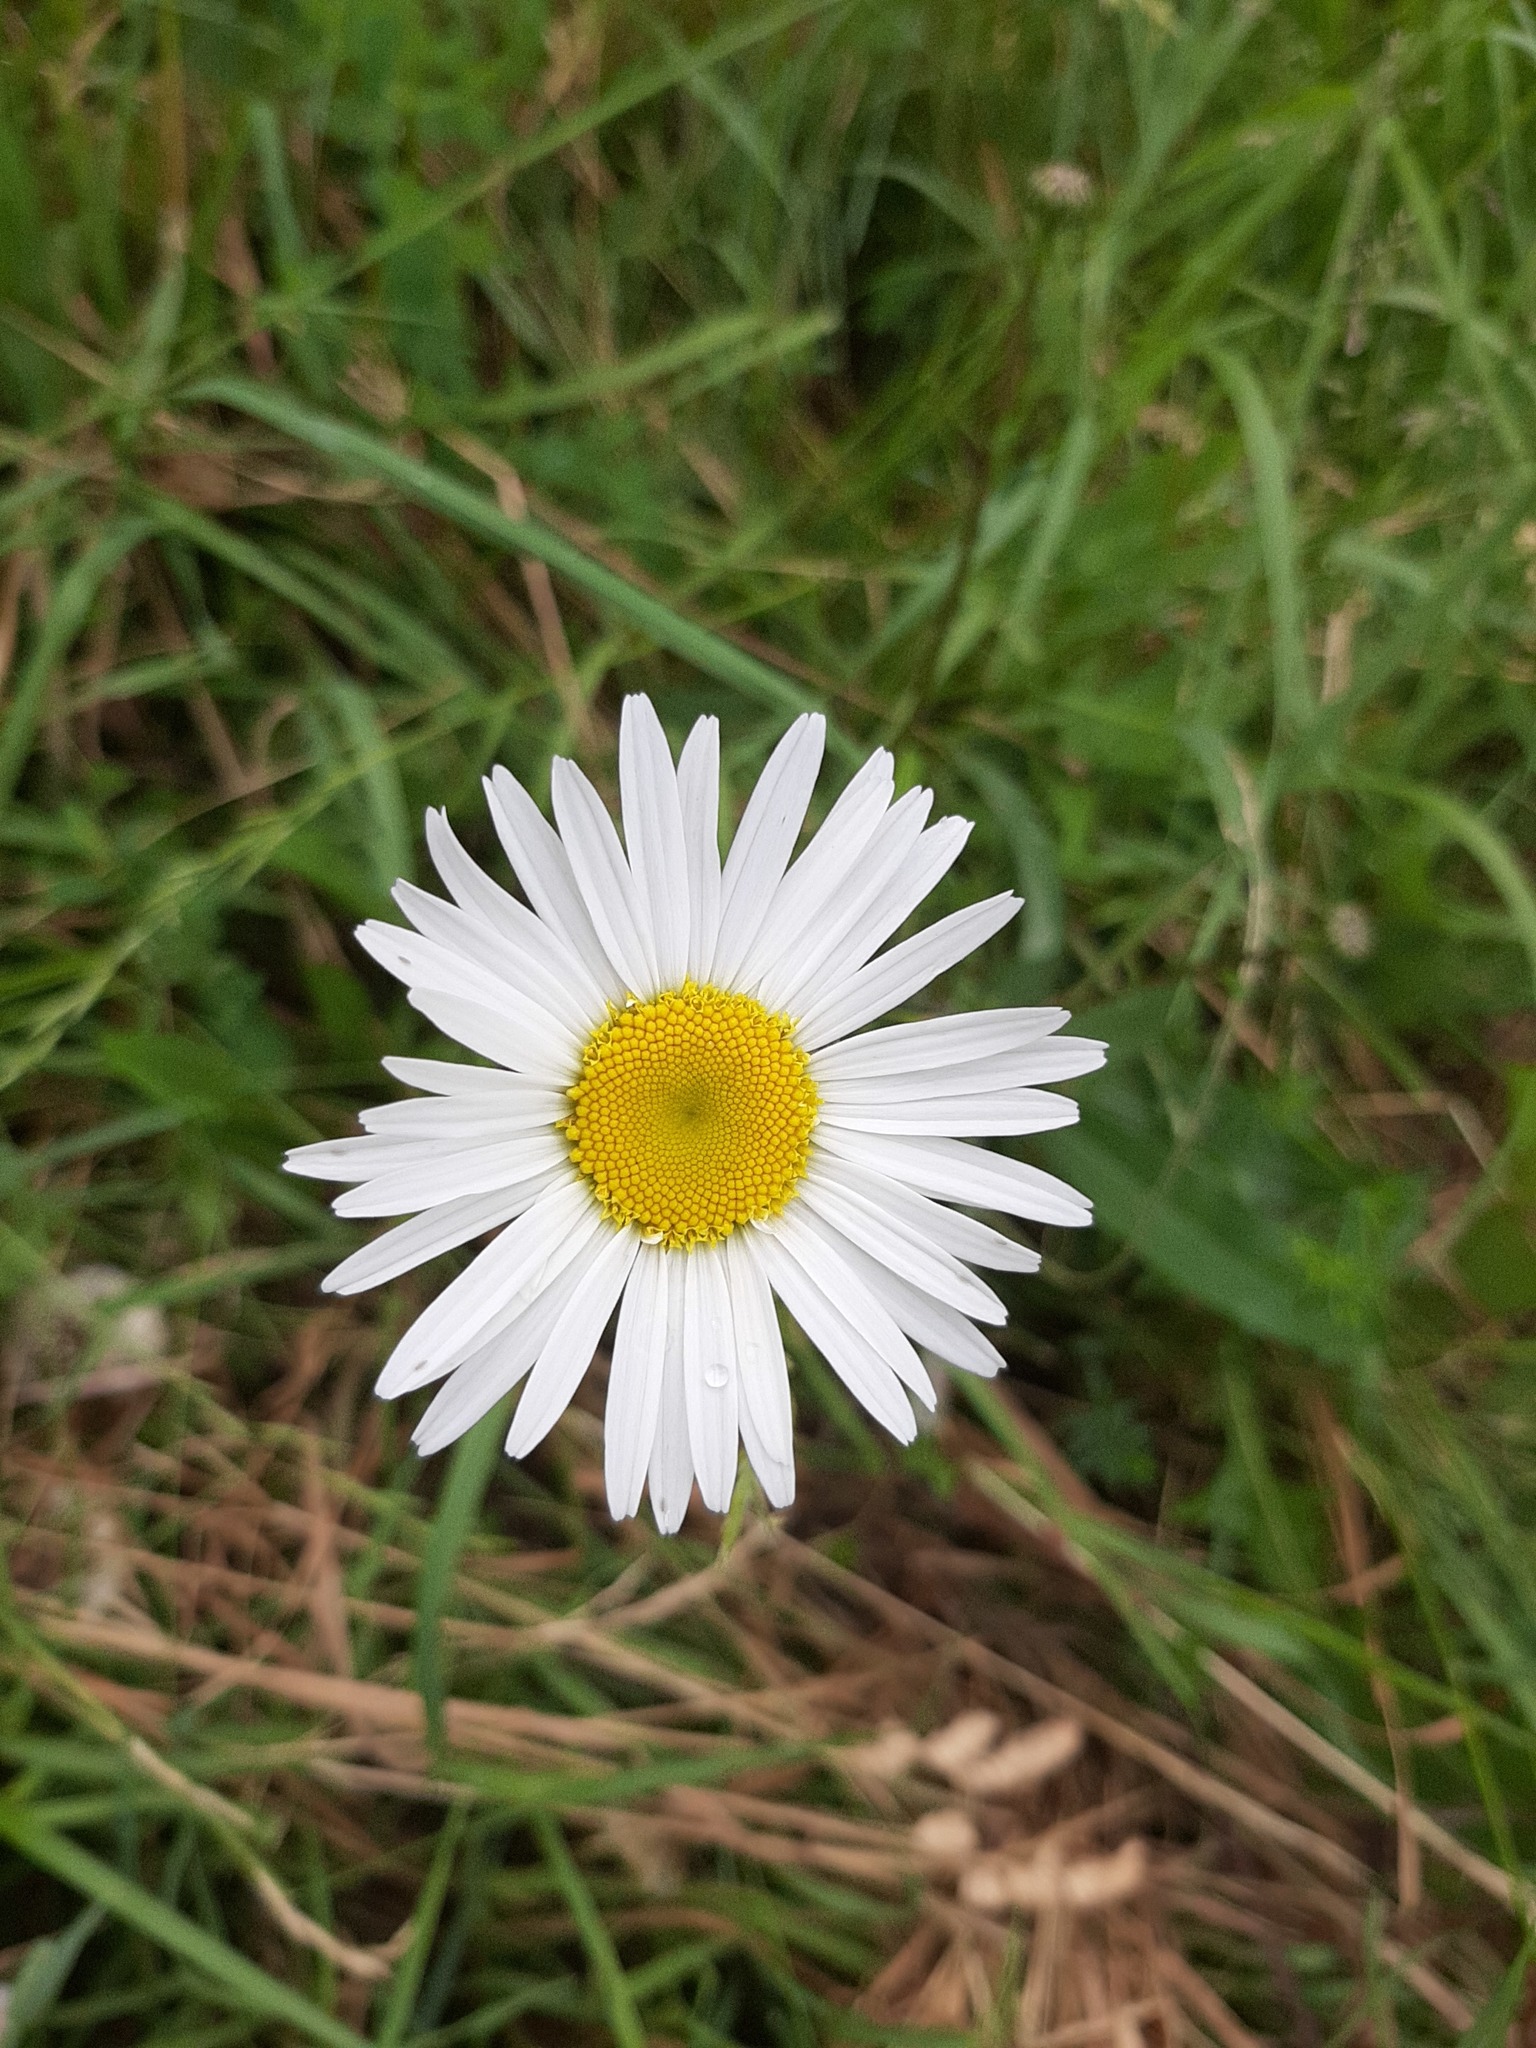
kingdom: Plantae
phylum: Tracheophyta
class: Magnoliopsida
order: Asterales
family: Asteraceae
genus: Leucanthemum
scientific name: Leucanthemum vulgare
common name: Oxeye daisy
